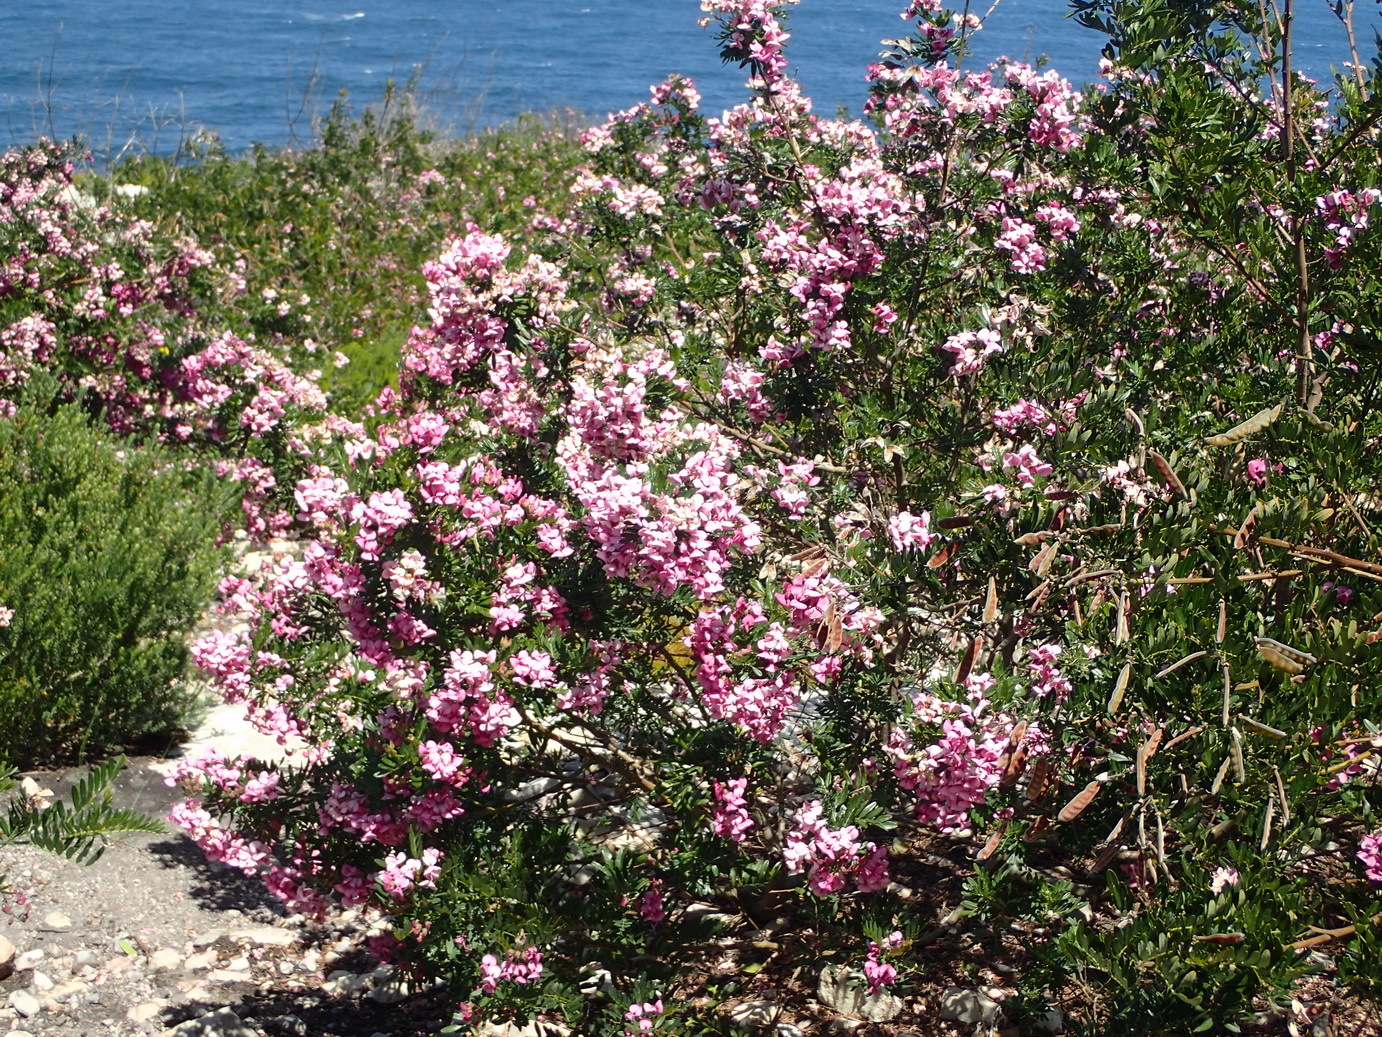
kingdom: Plantae
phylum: Tracheophyta
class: Magnoliopsida
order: Fabales
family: Fabaceae
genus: Virgilia
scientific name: Virgilia divaricata
